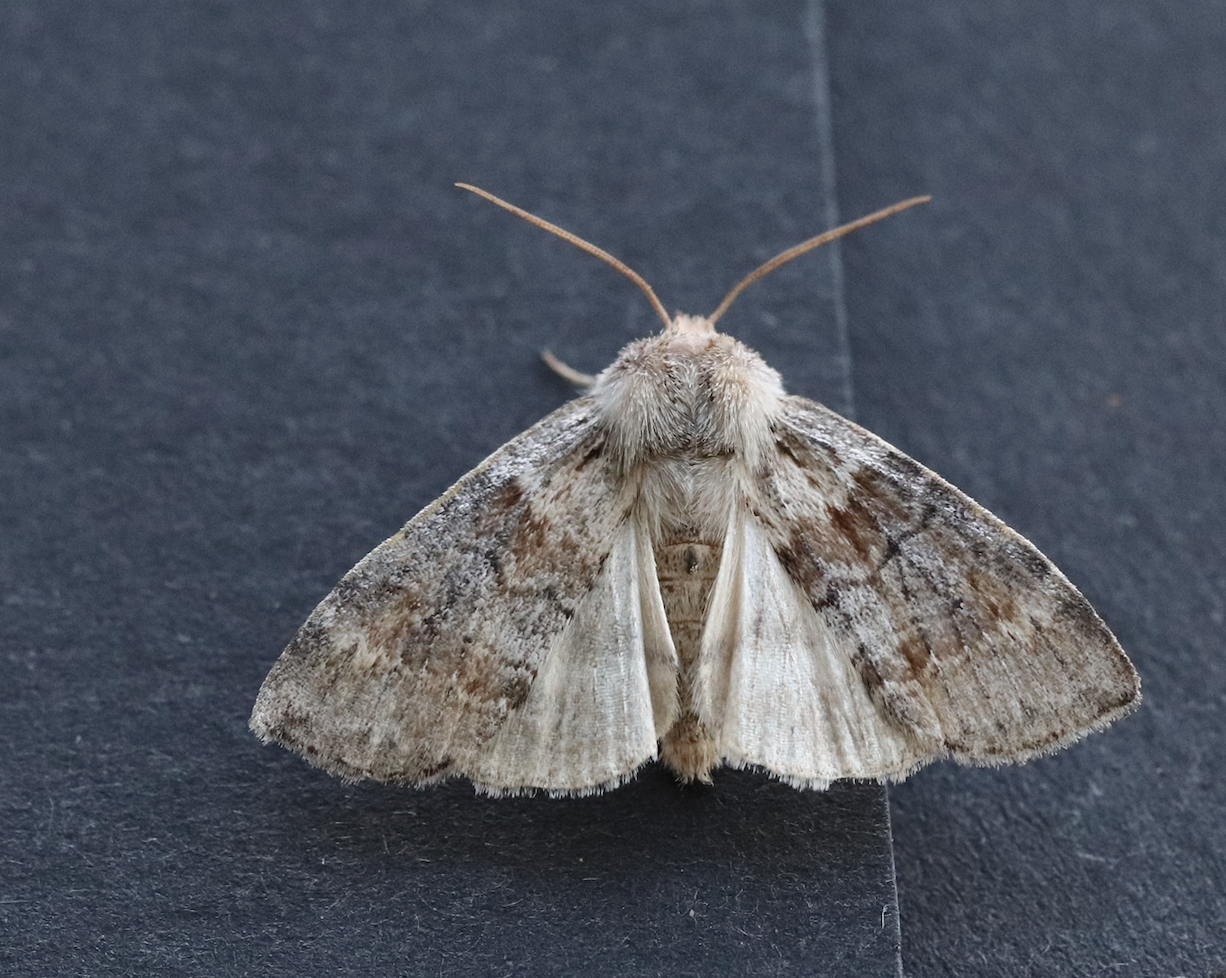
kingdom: Animalia
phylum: Arthropoda
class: Insecta
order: Lepidoptera
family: Drepanidae
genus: Cymatophorina
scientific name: Cymatophorina diluta
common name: Oak lutestring
